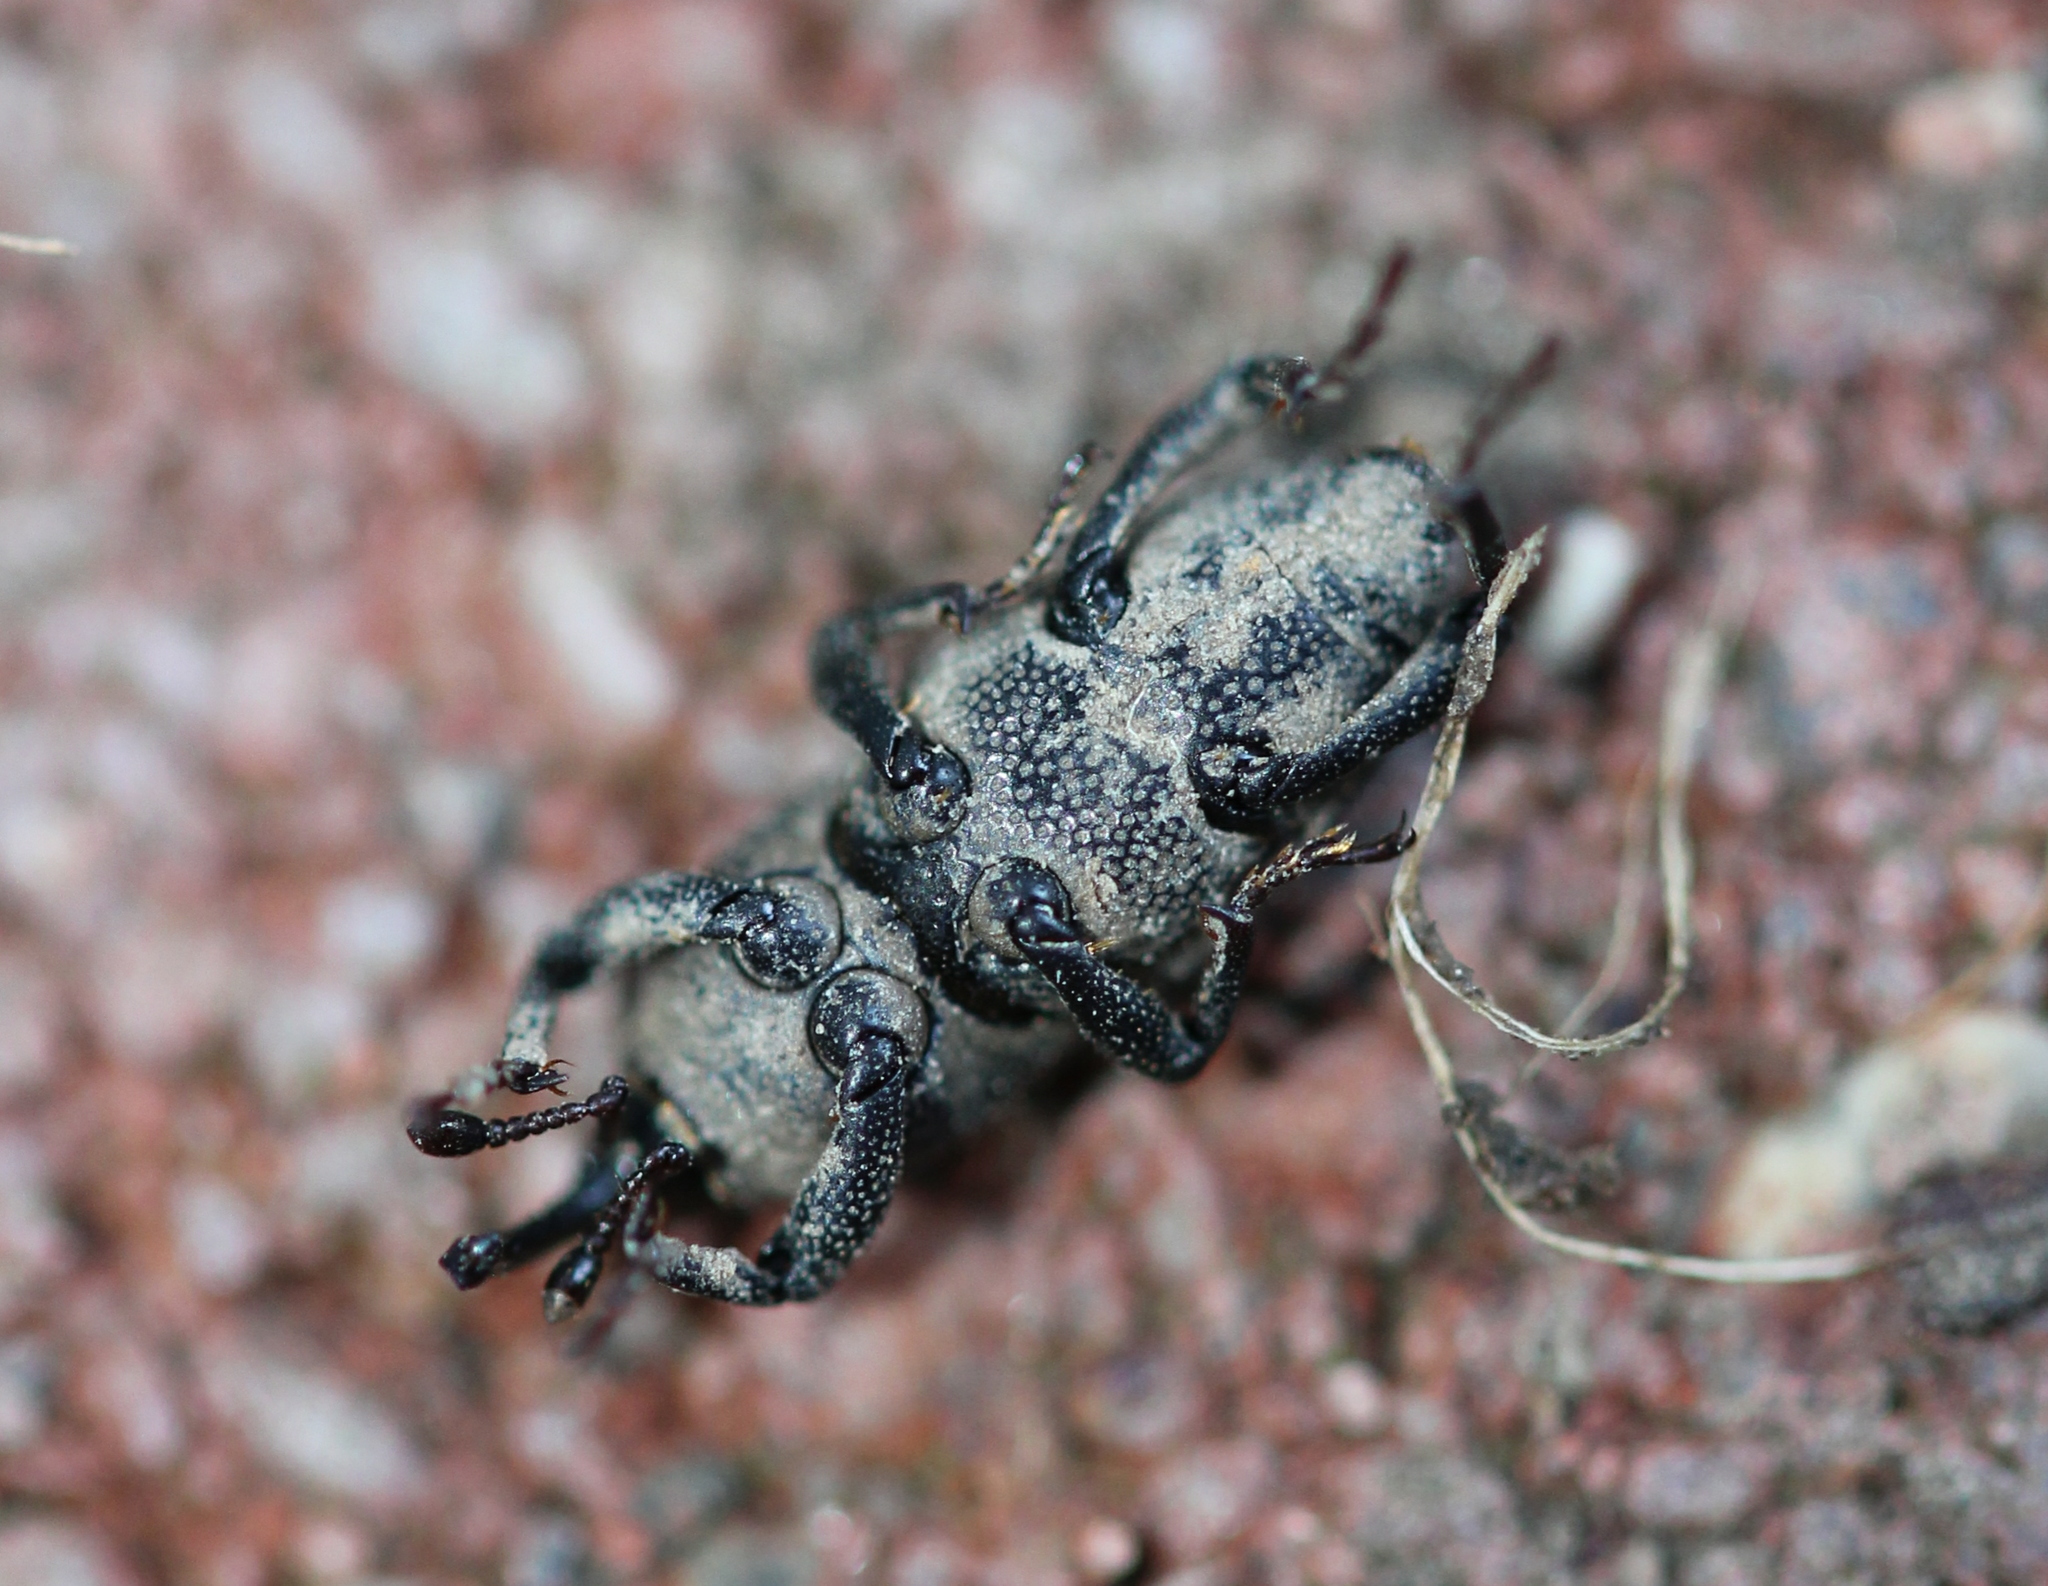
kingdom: Animalia
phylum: Arthropoda
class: Insecta
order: Coleoptera
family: Dryophthoridae
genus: Sphenophorus
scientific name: Sphenophorus interstitialis
